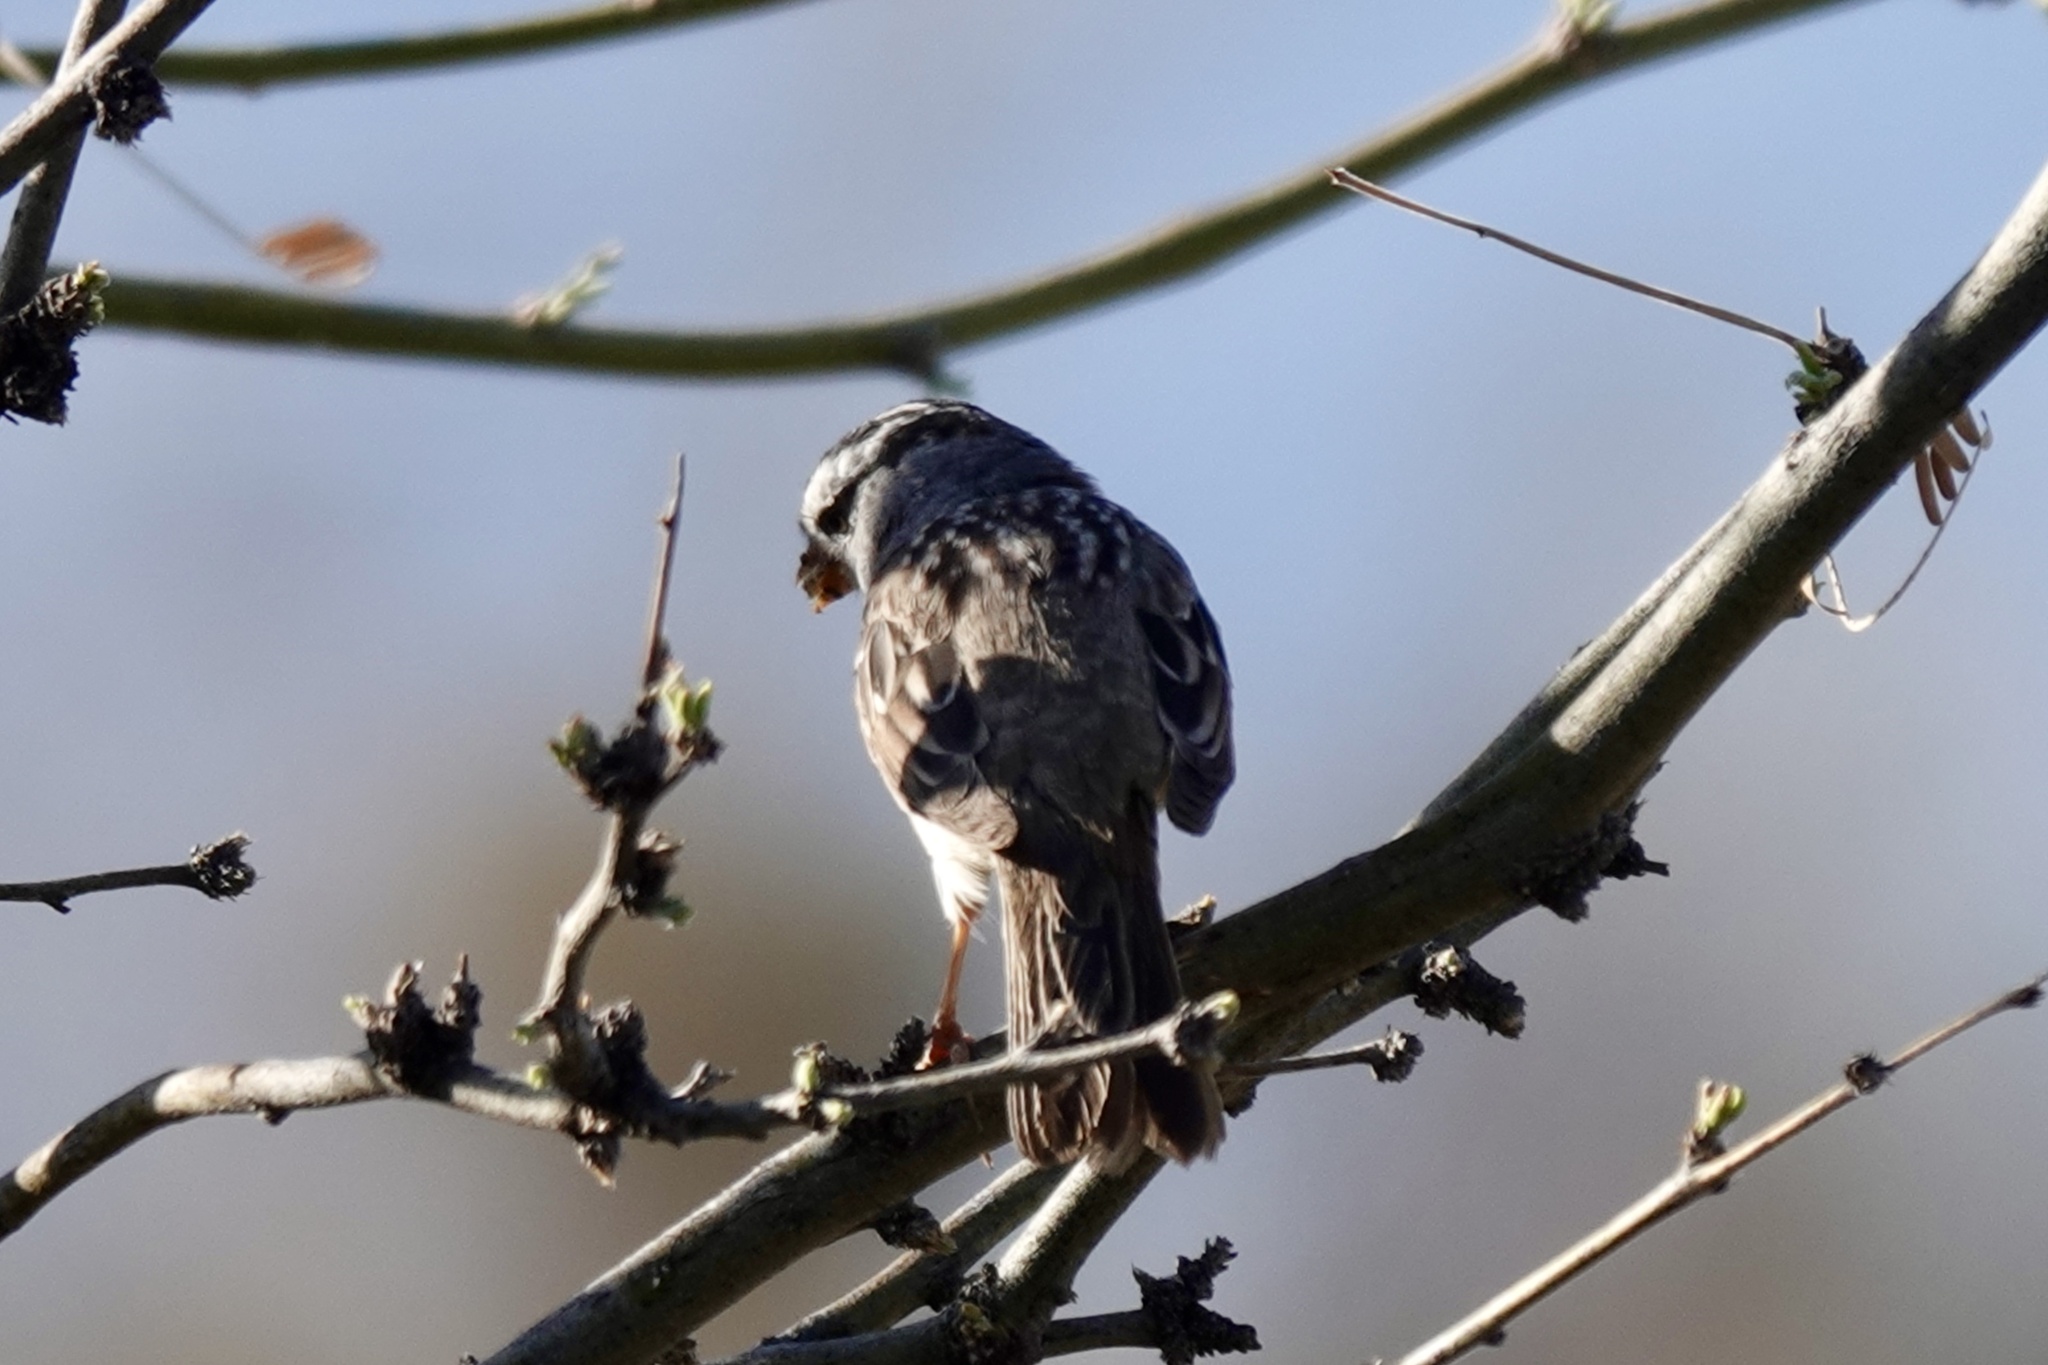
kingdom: Animalia
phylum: Chordata
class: Aves
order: Passeriformes
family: Passerellidae
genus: Zonotrichia
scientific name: Zonotrichia leucophrys
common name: White-crowned sparrow
